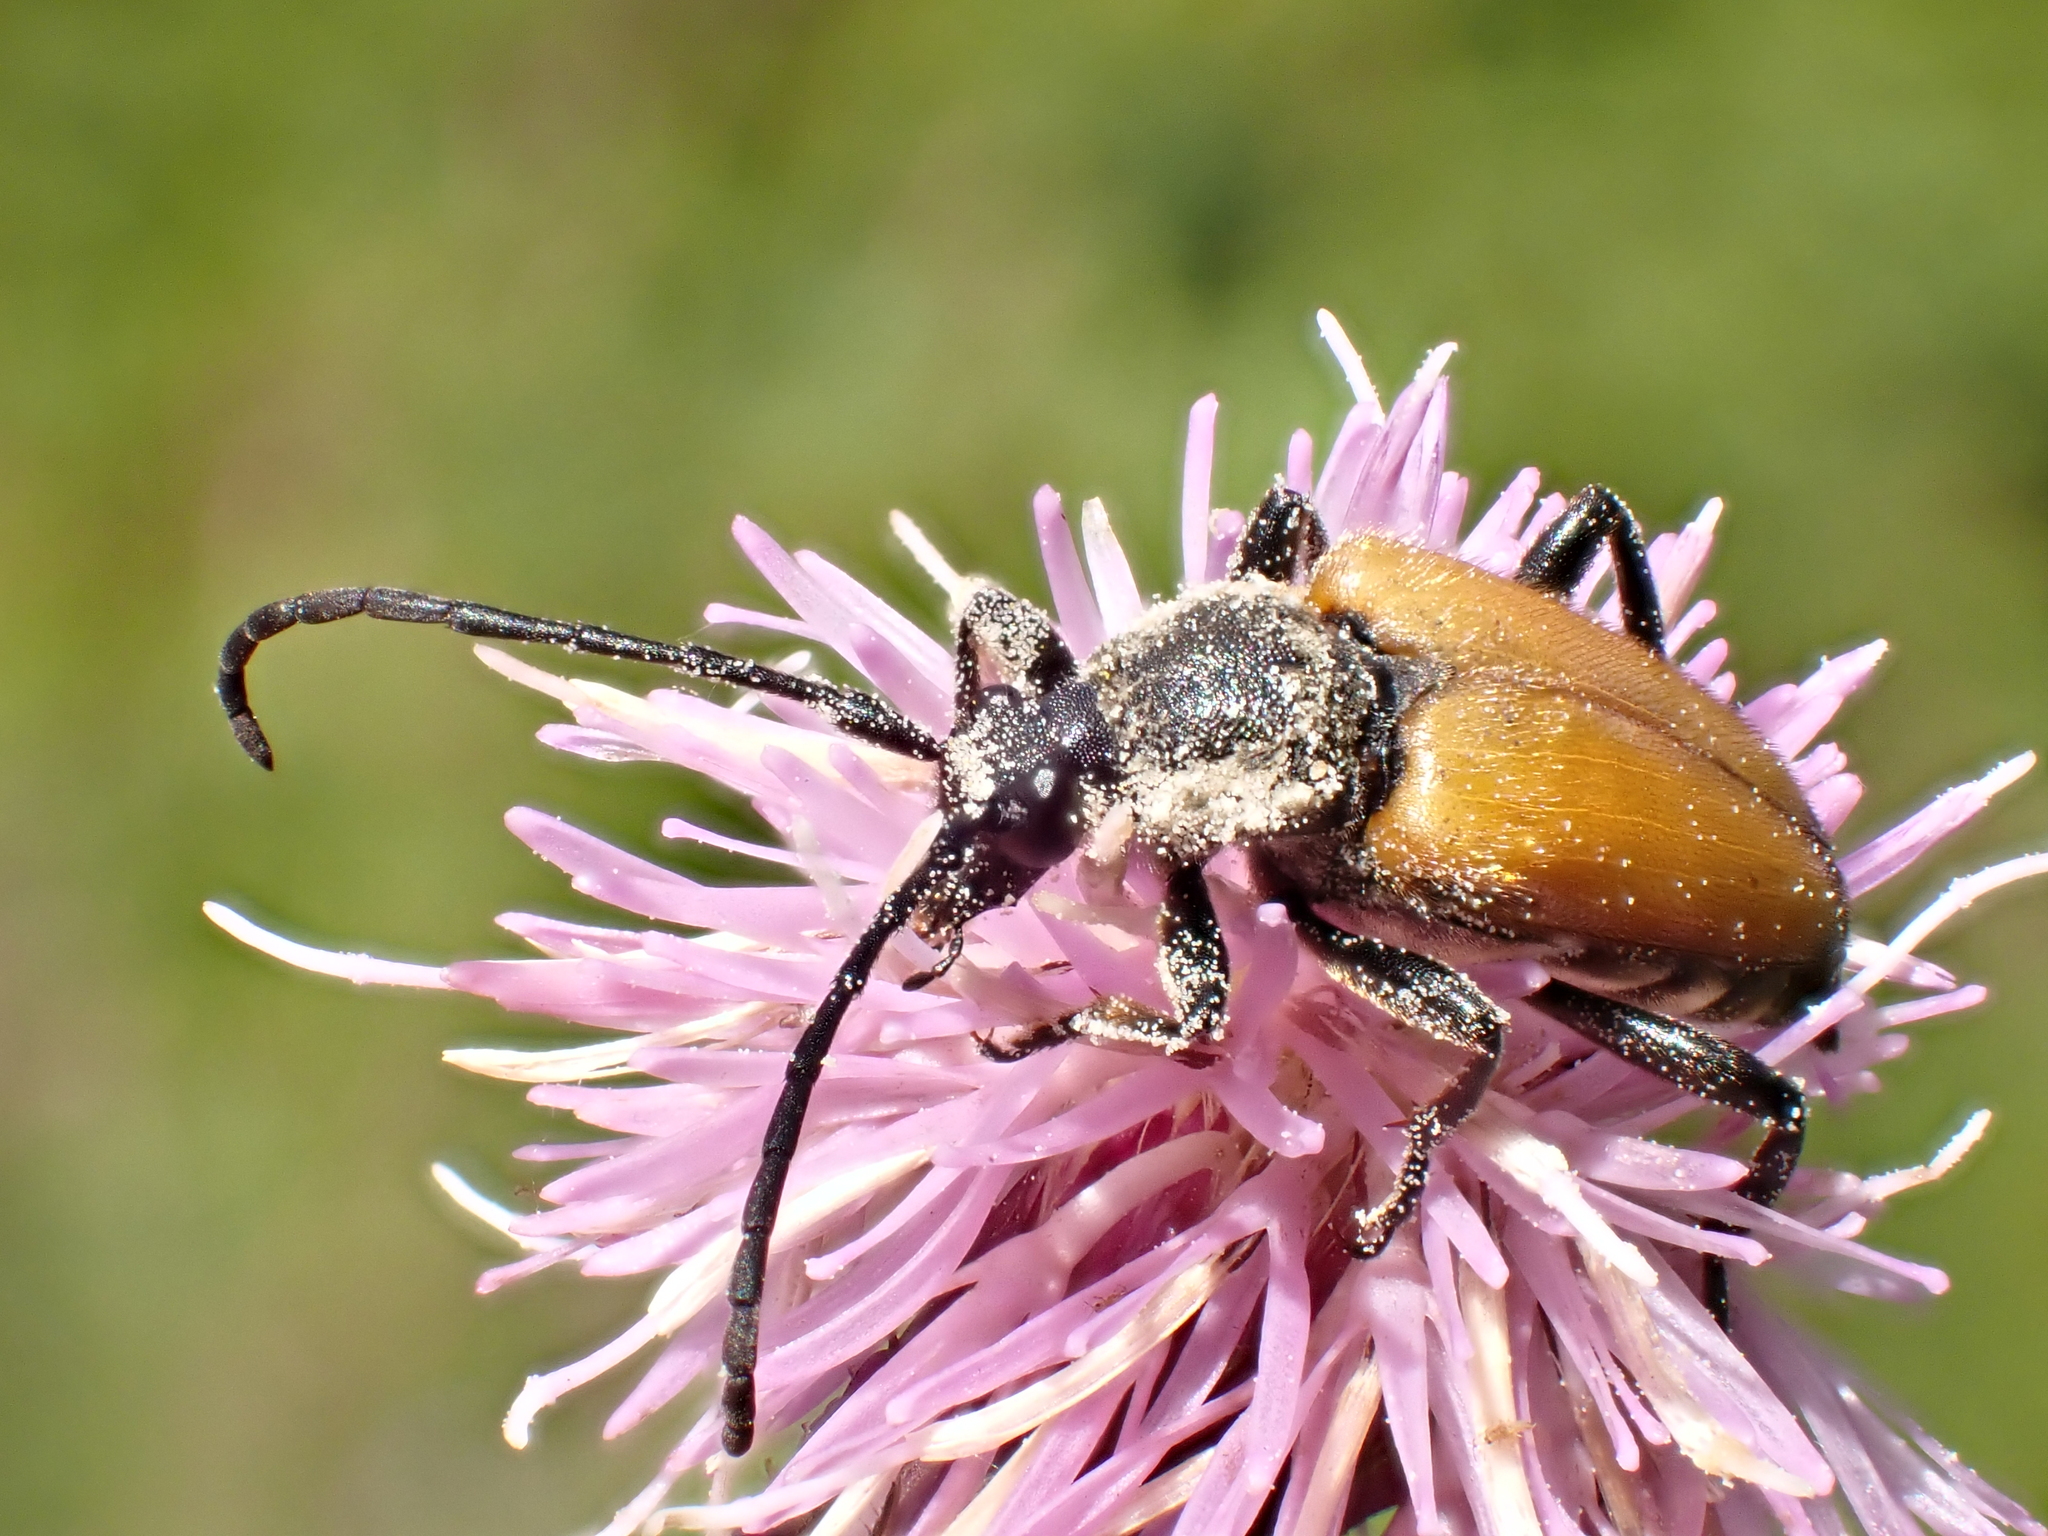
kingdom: Animalia
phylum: Arthropoda
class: Insecta
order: Coleoptera
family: Cerambycidae
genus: Paracorymbia
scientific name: Paracorymbia fulva
